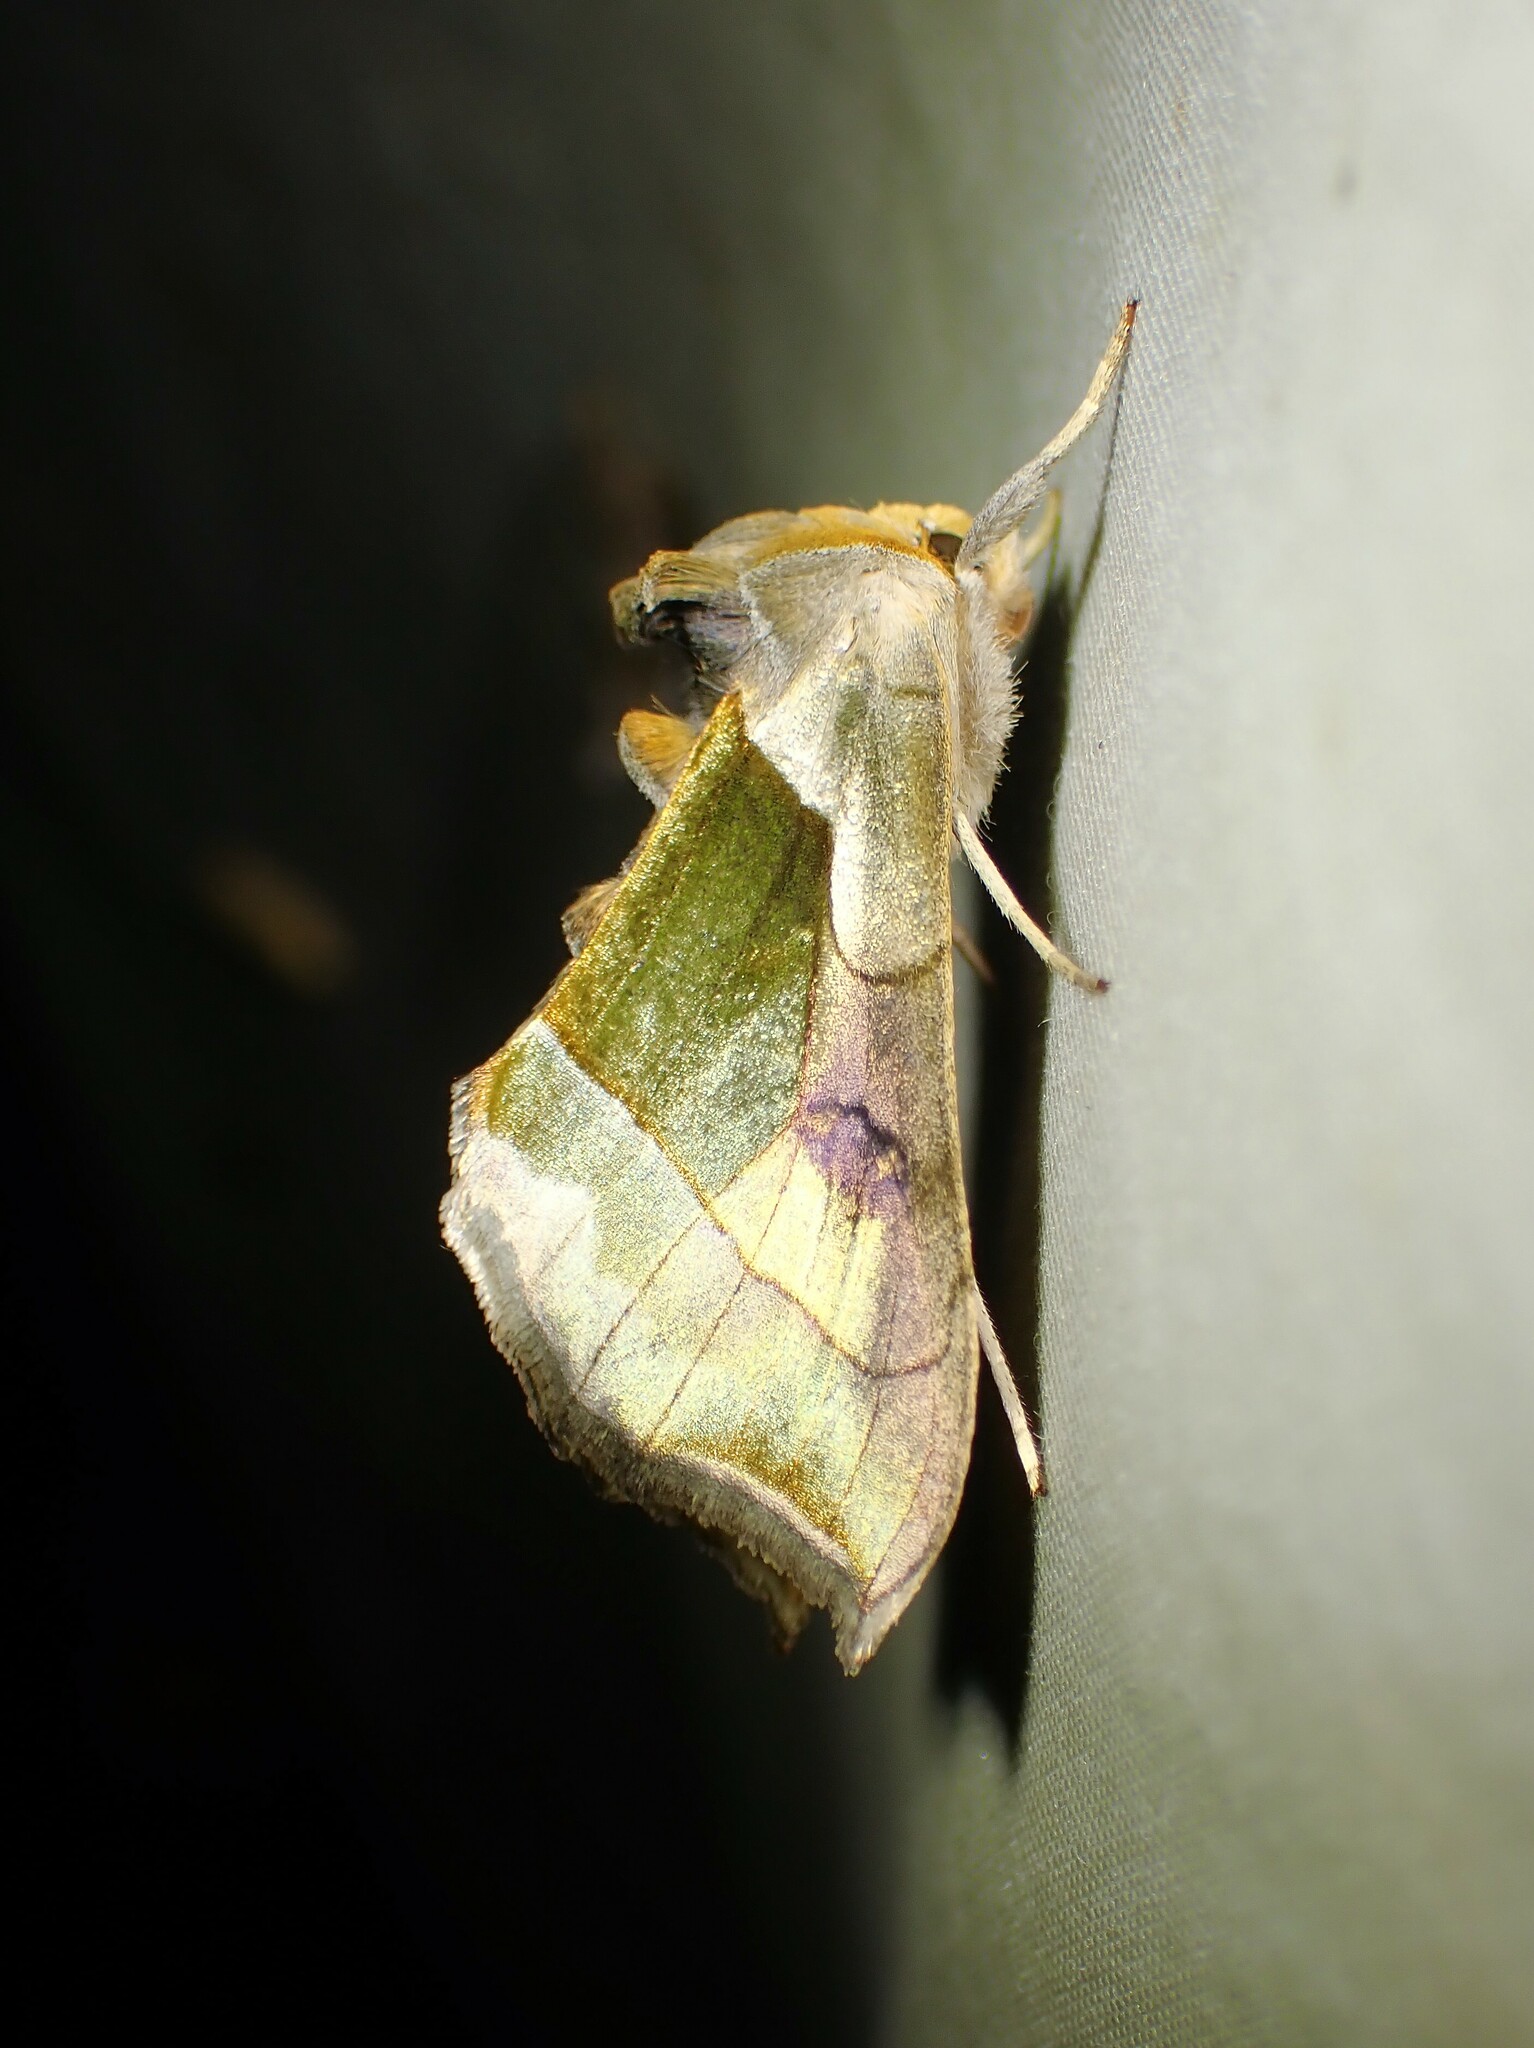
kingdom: Animalia
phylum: Arthropoda
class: Insecta
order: Lepidoptera
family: Noctuidae
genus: Diachrysia
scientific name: Diachrysia balluca
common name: Green-patched looper moth
